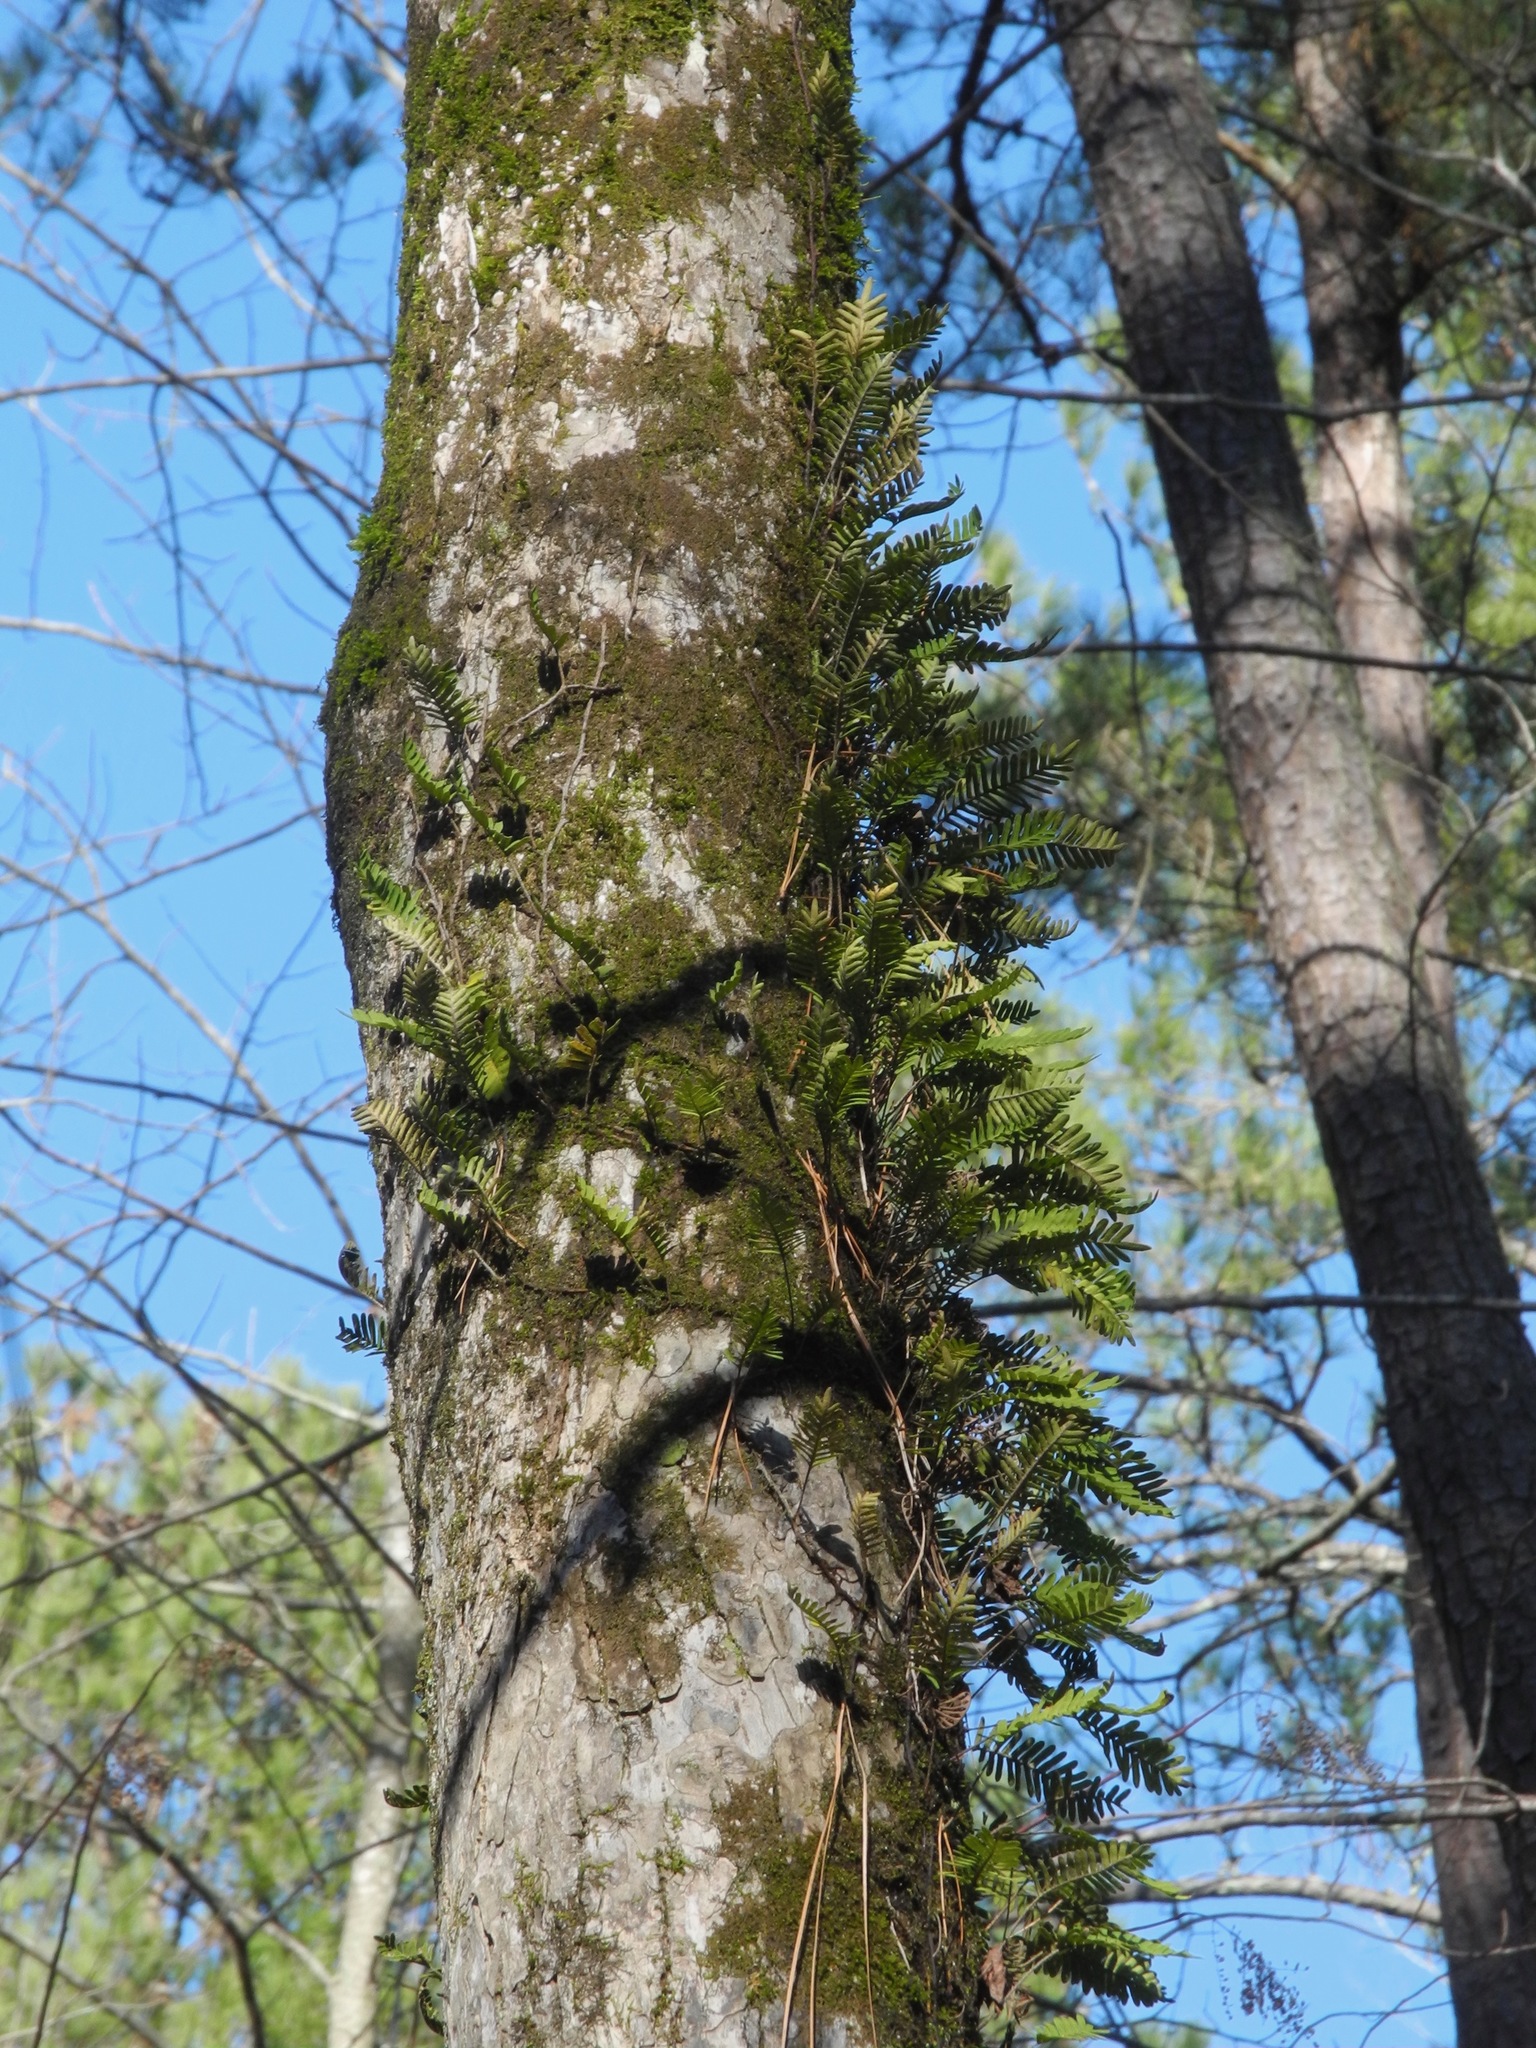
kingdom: Plantae
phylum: Tracheophyta
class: Polypodiopsida
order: Polypodiales
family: Polypodiaceae
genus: Pleopeltis
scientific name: Pleopeltis michauxiana
